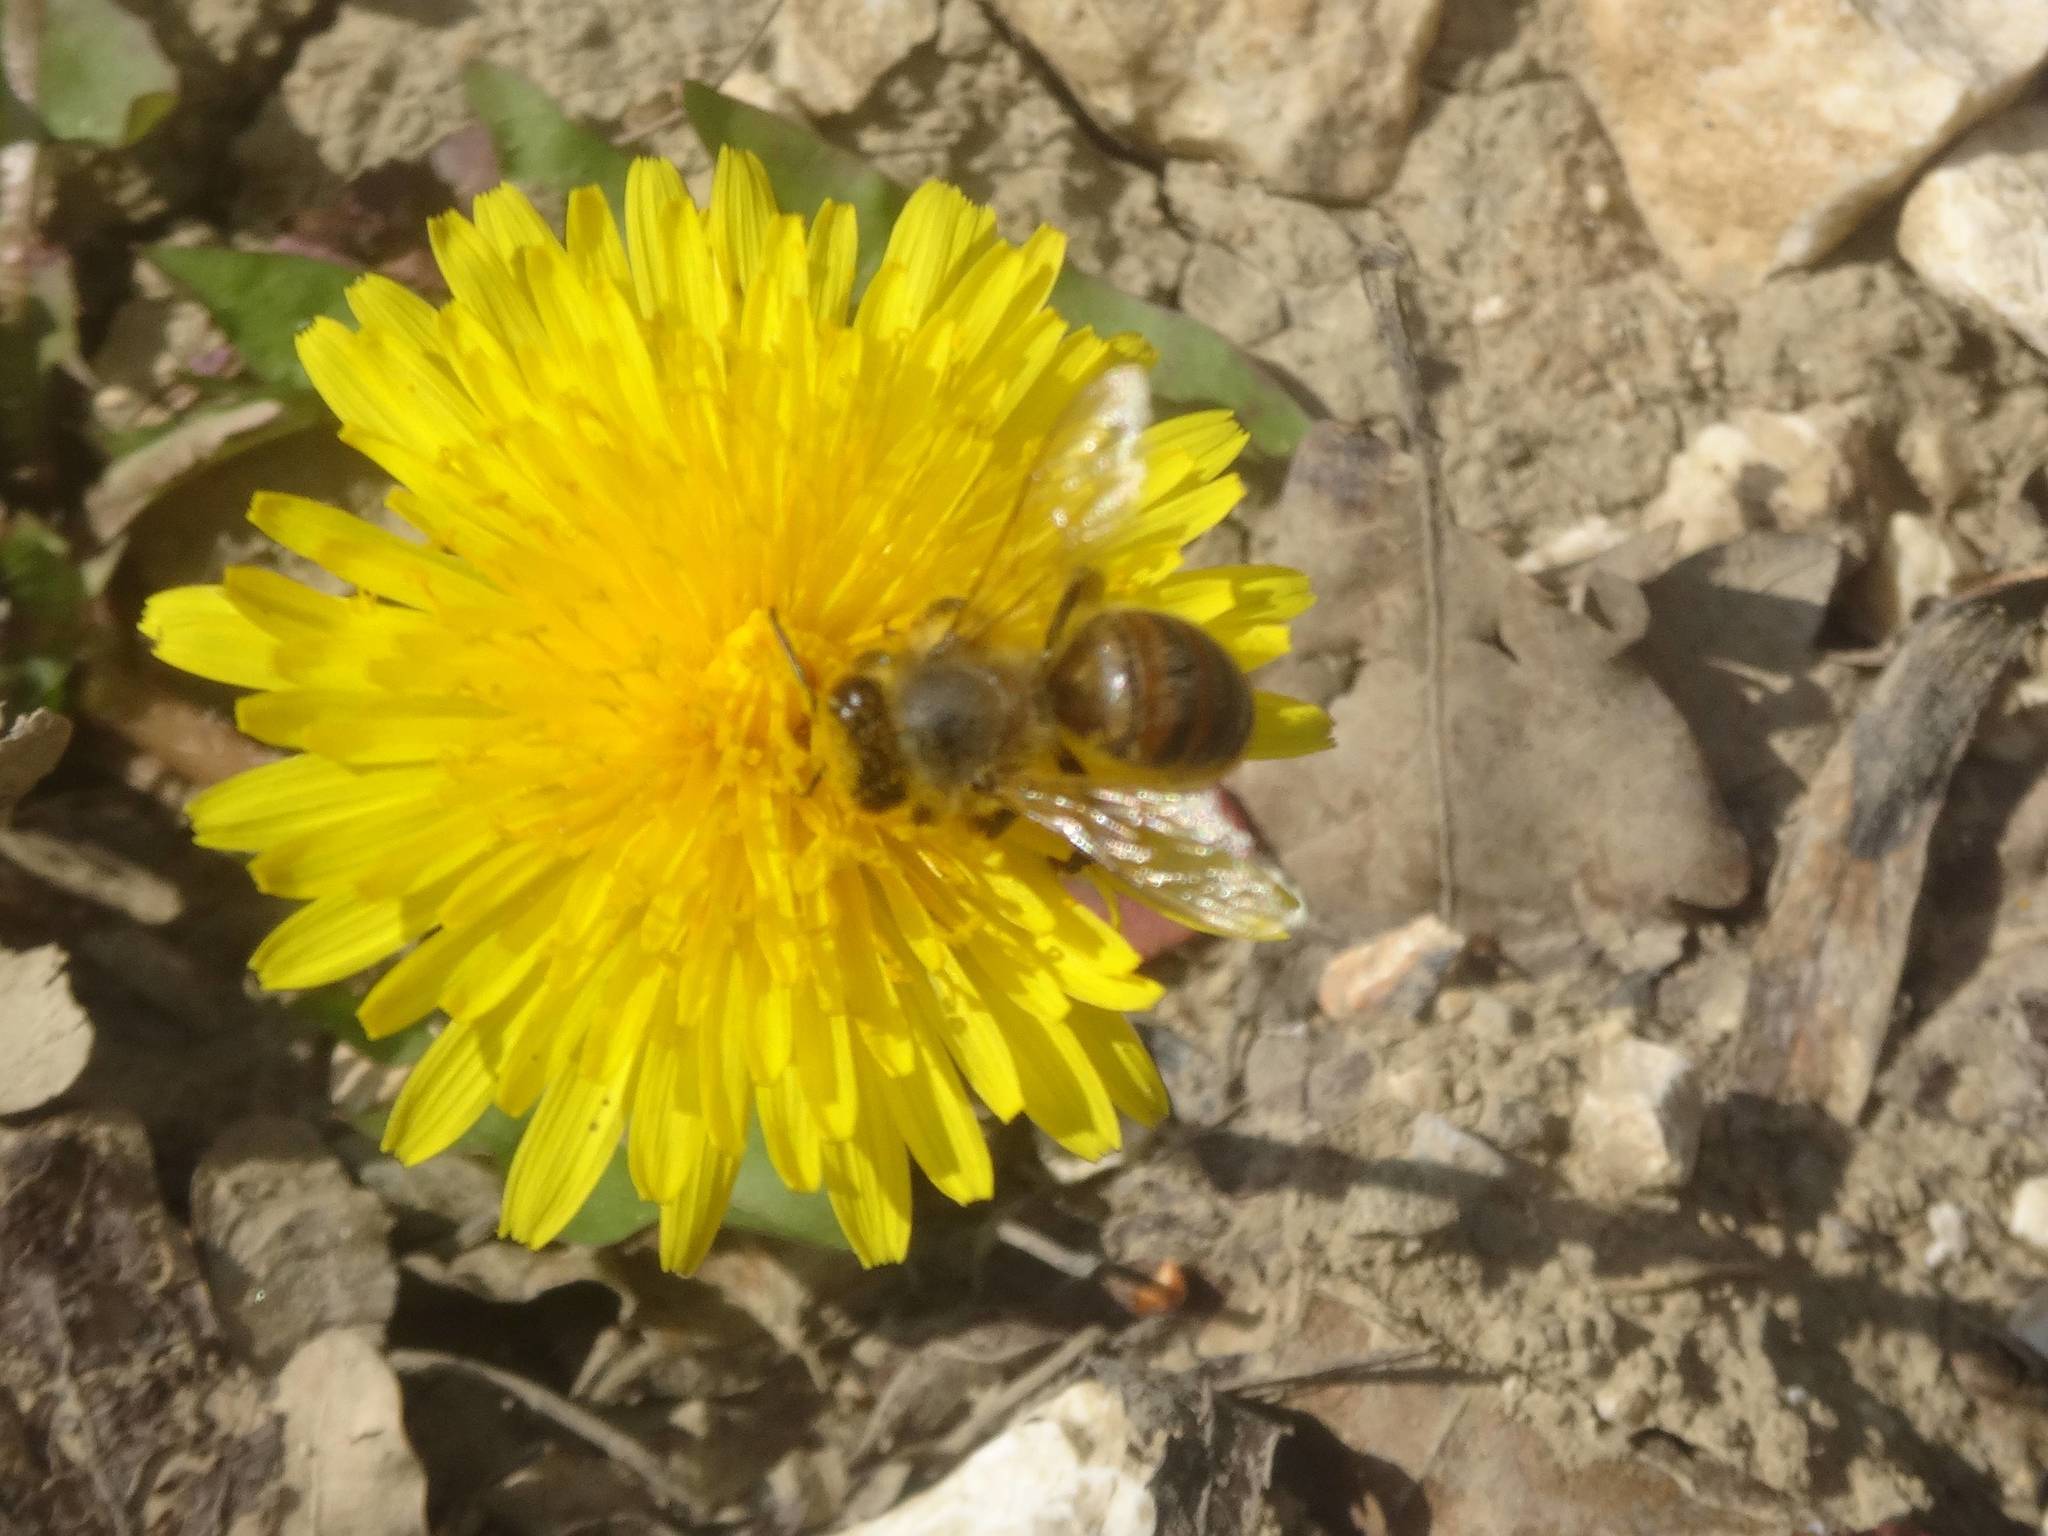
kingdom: Animalia
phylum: Arthropoda
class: Insecta
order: Hymenoptera
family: Apidae
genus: Apis
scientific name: Apis mellifera
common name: Honey bee
